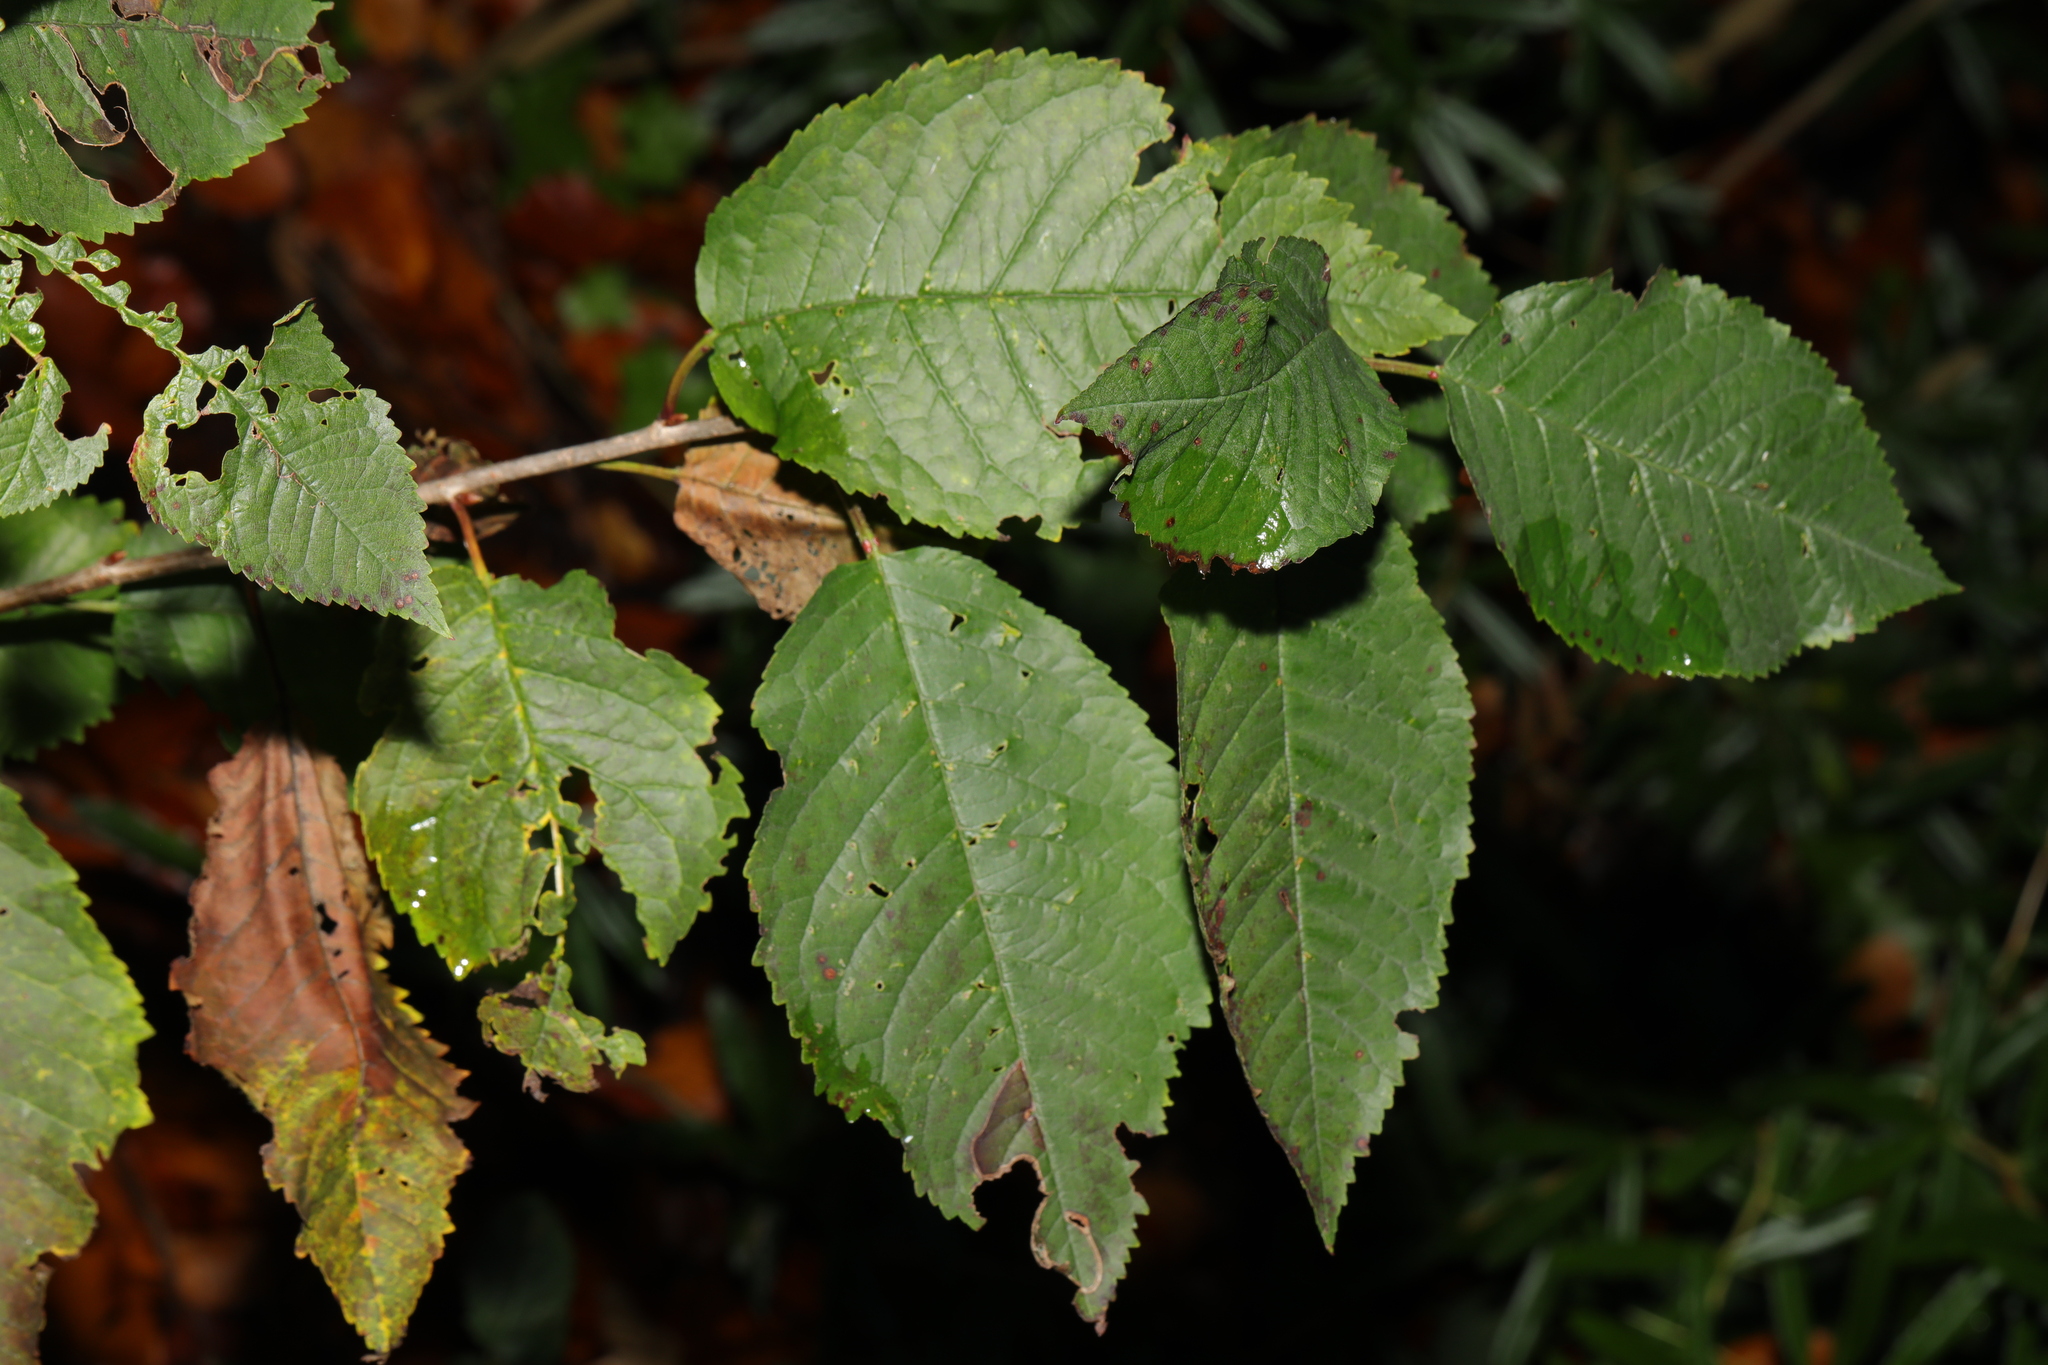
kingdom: Plantae
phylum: Tracheophyta
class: Magnoliopsida
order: Rosales
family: Rosaceae
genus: Prunus
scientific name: Prunus avium
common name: Sweet cherry
